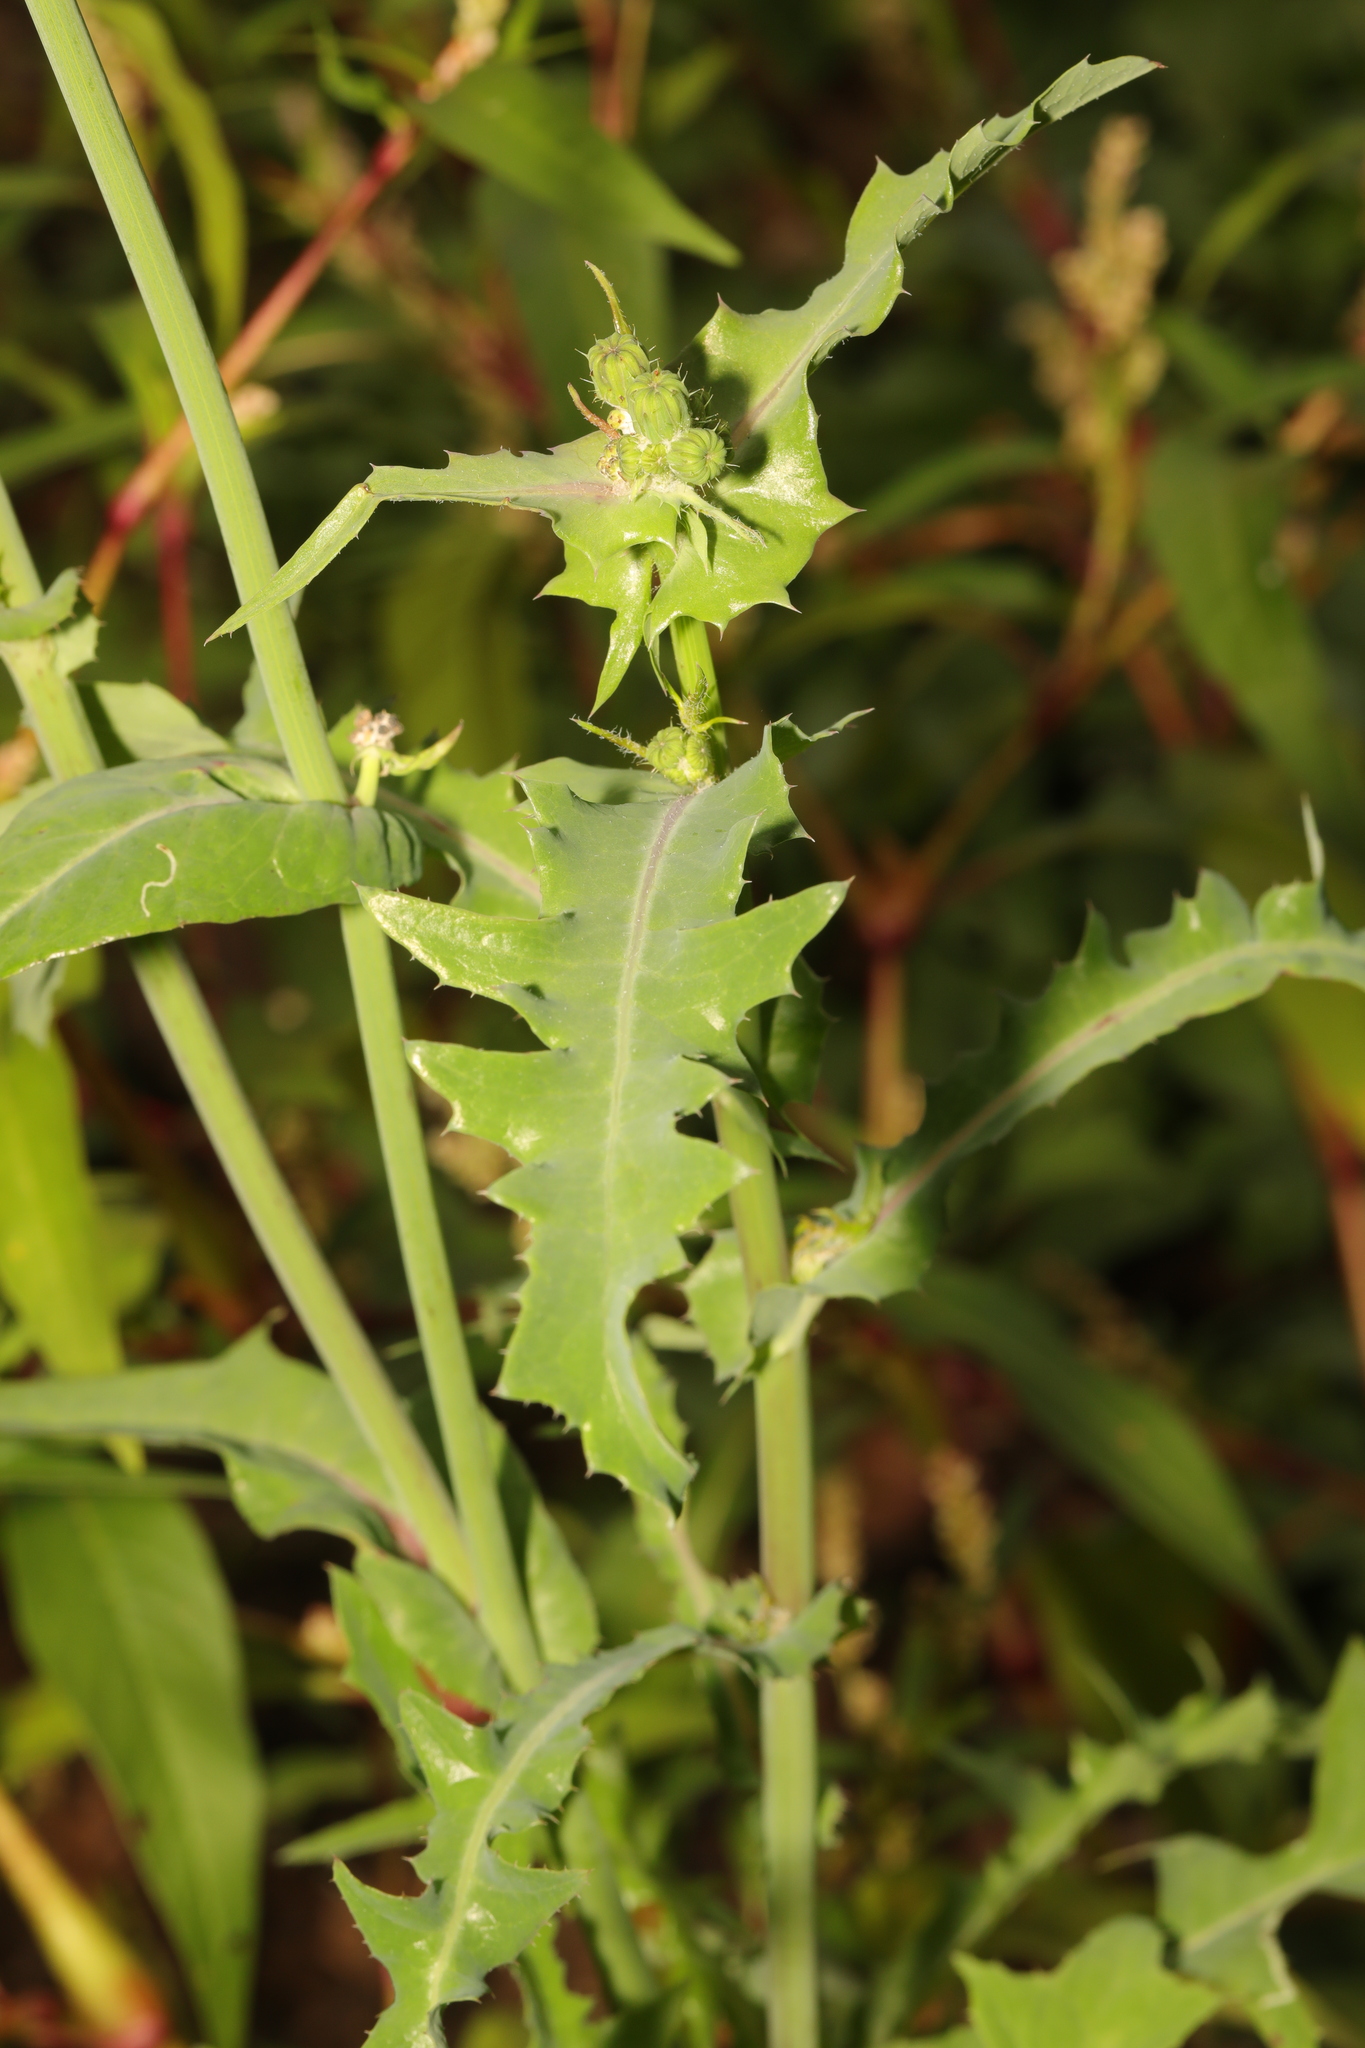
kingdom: Plantae
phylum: Tracheophyta
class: Magnoliopsida
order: Asterales
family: Asteraceae
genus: Sonchus
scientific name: Sonchus oleraceus
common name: Common sowthistle
